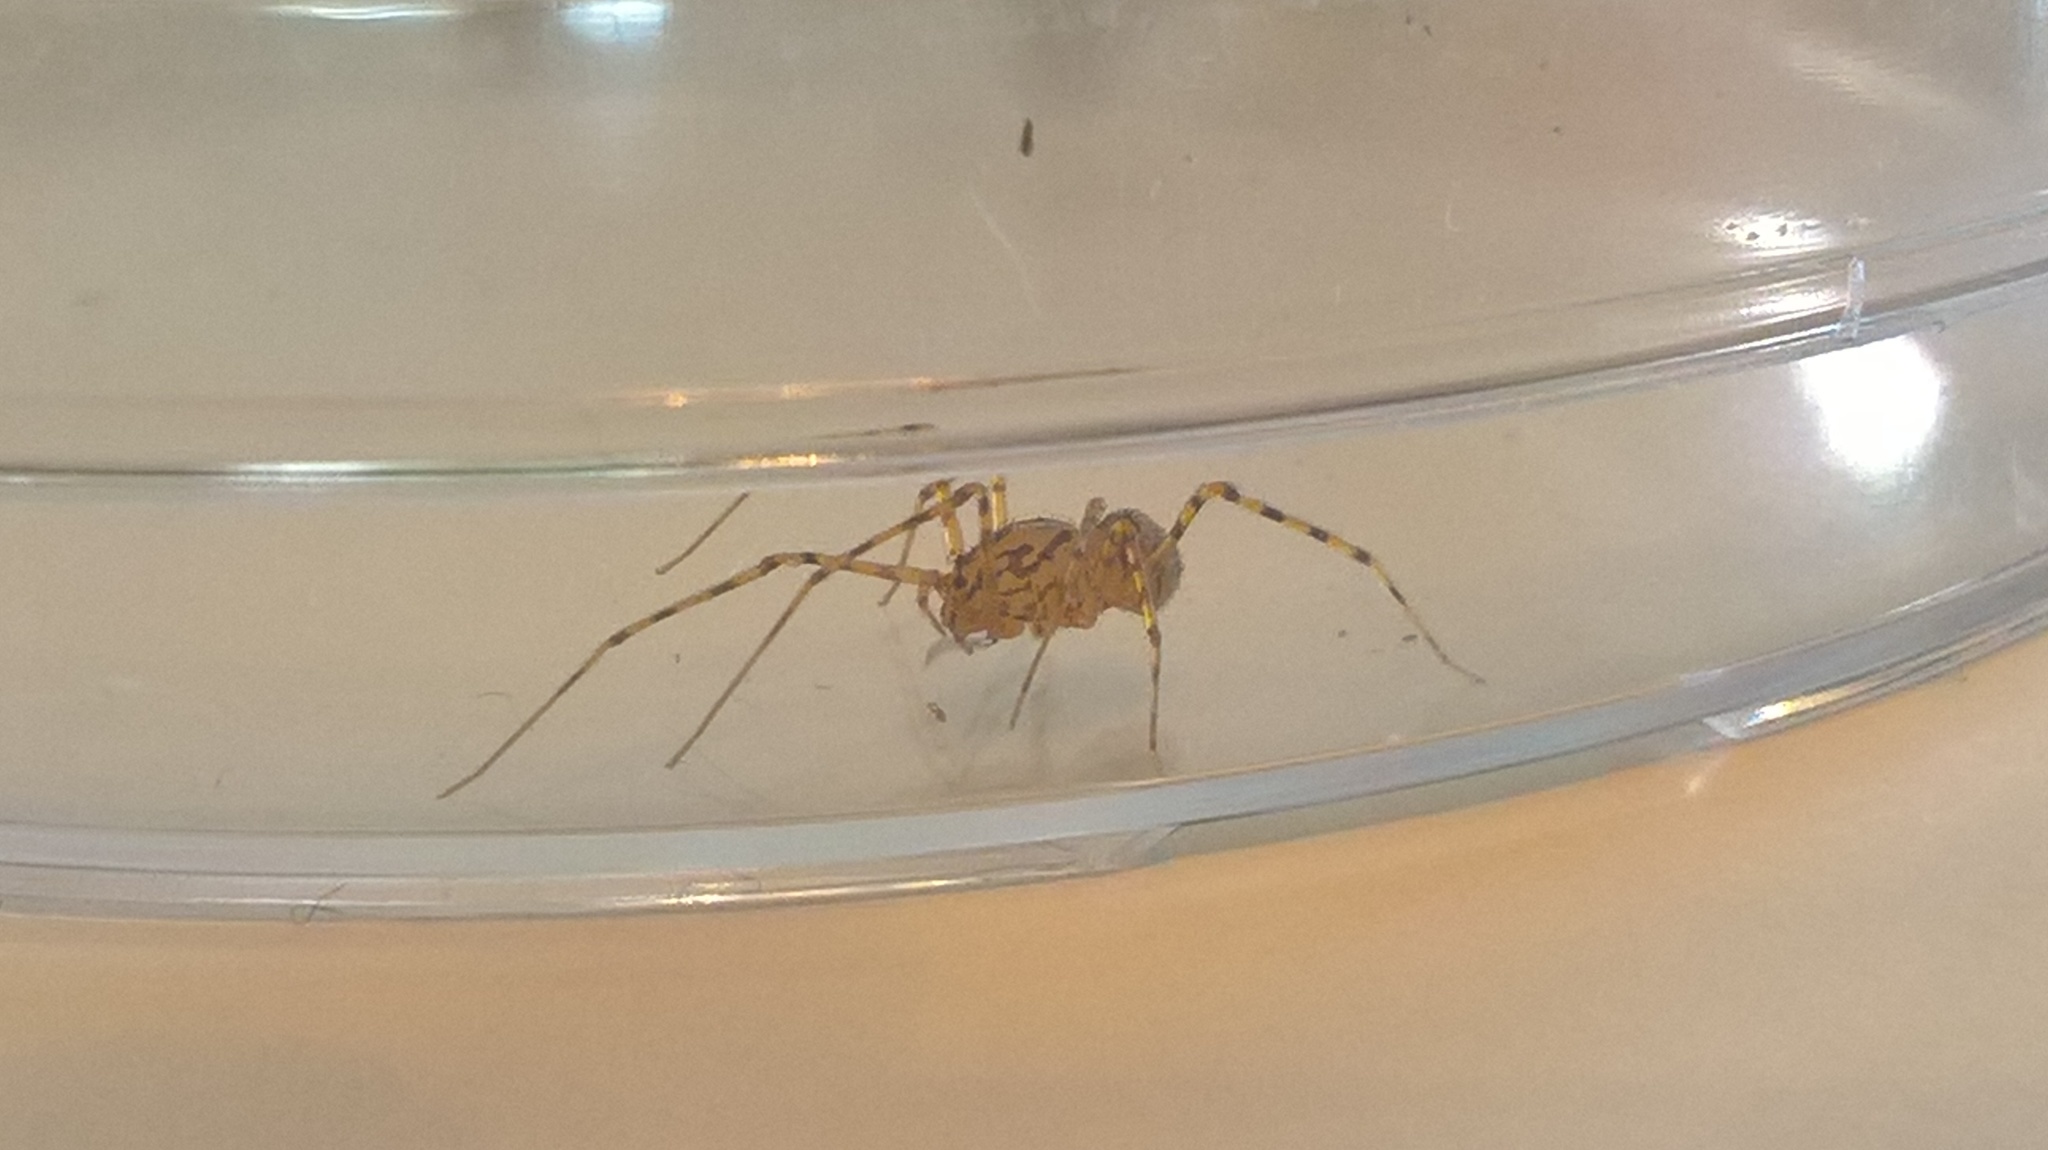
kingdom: Animalia
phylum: Arthropoda
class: Arachnida
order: Araneae
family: Scytodidae
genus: Scytodes
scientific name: Scytodes thoracica
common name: Spitting spider
